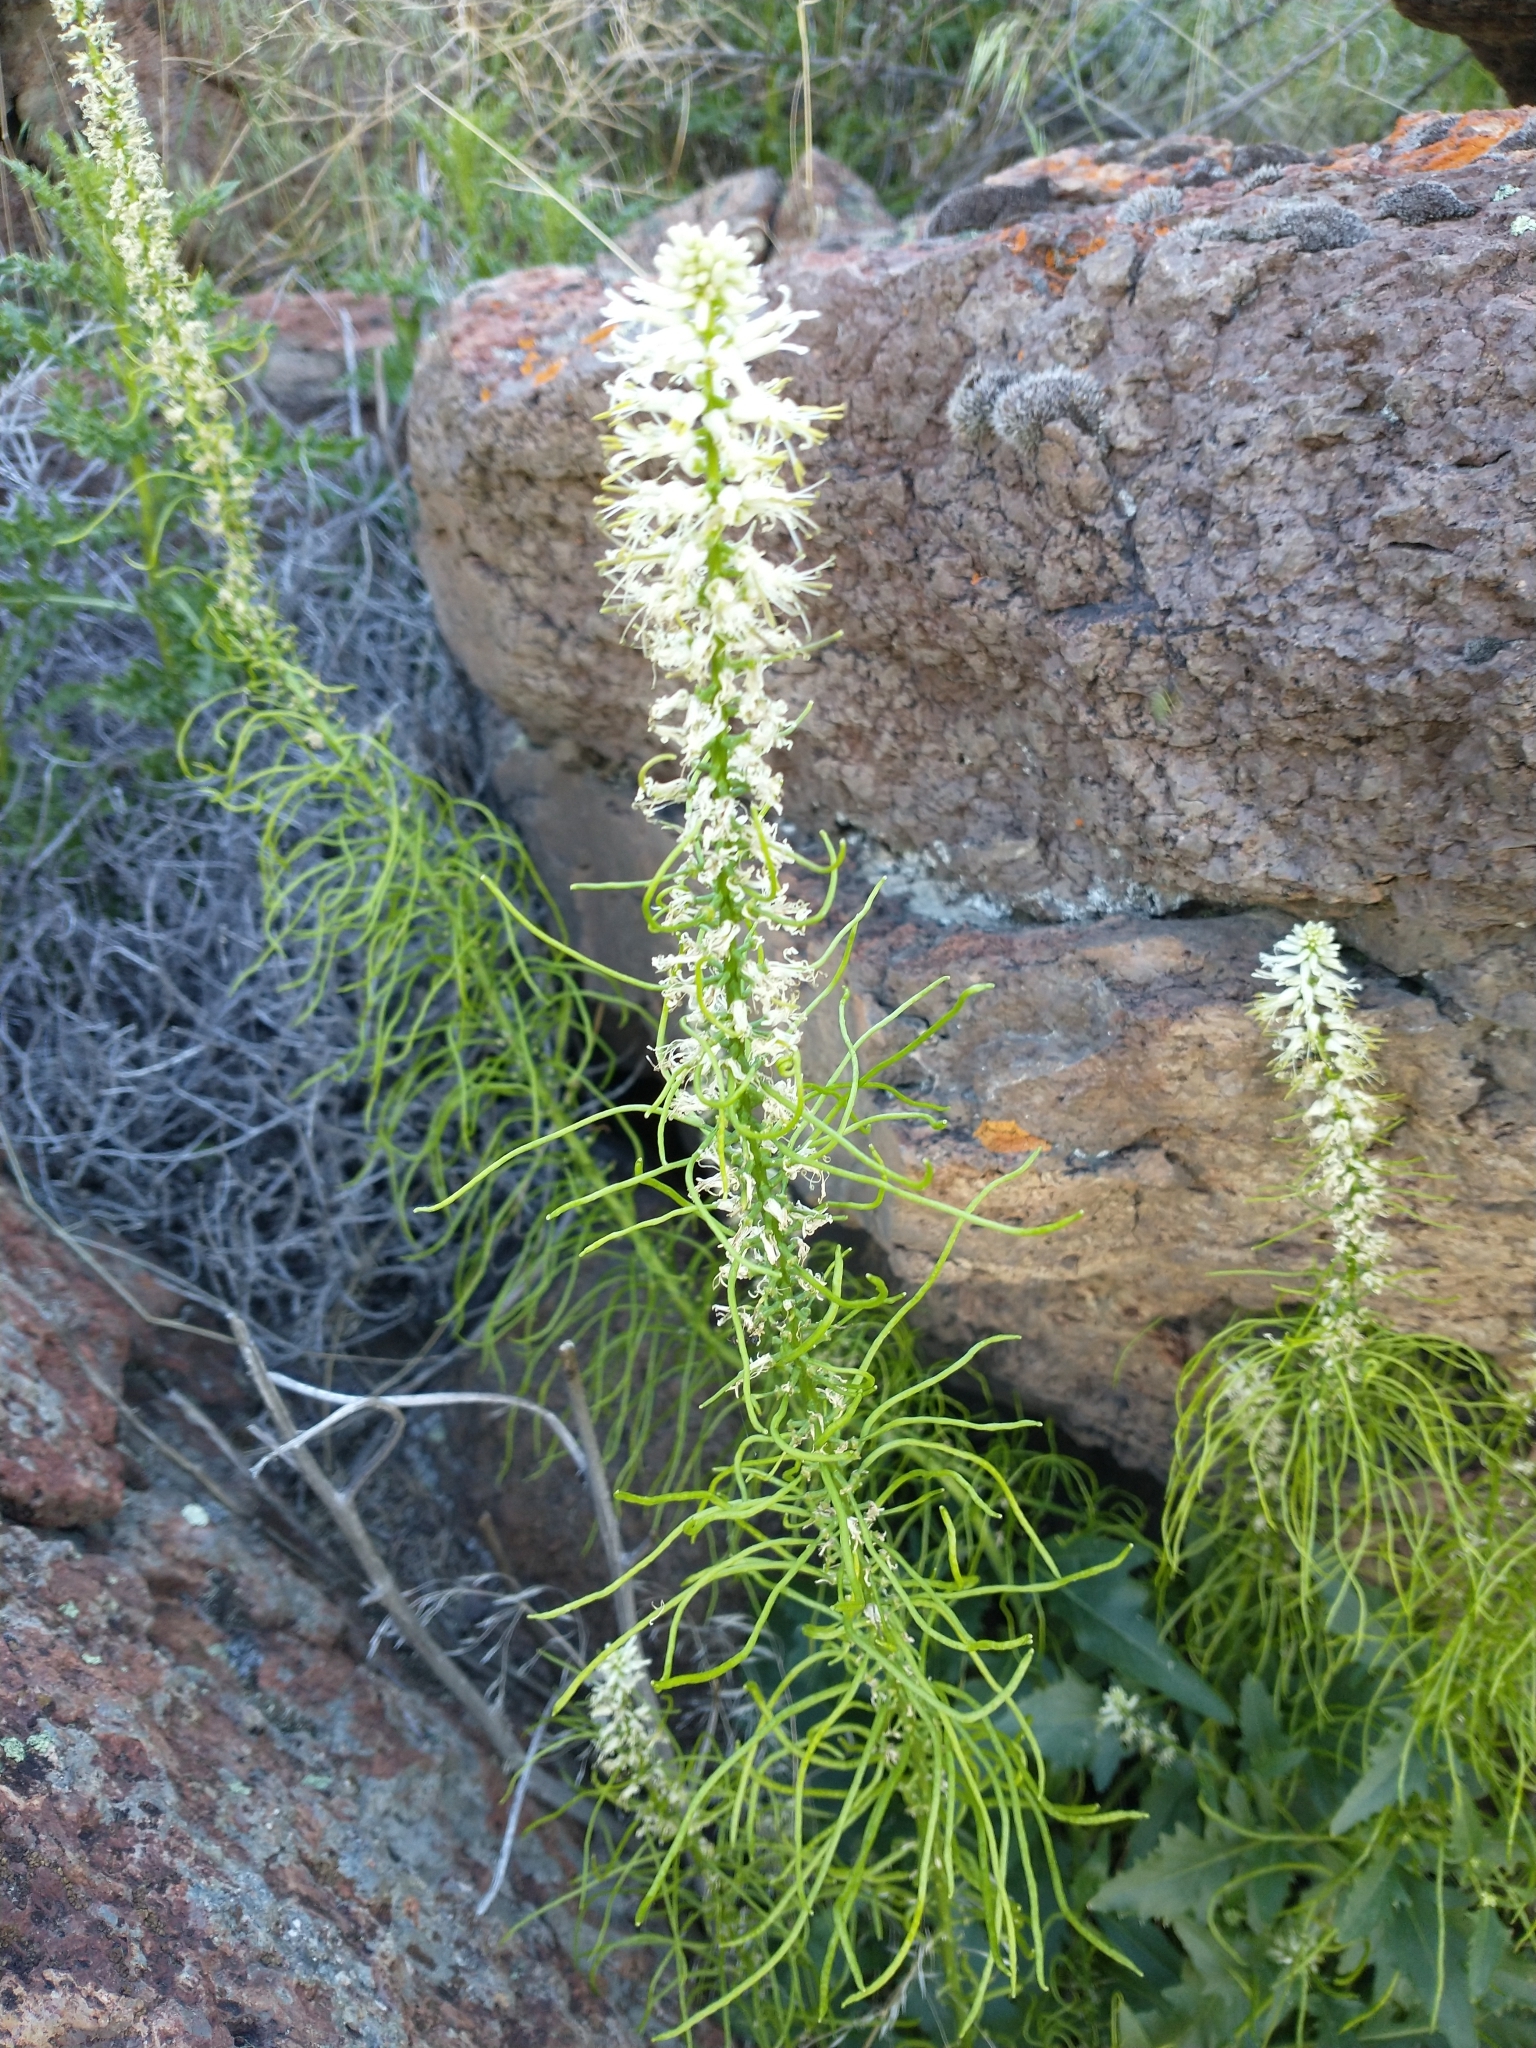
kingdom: Plantae
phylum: Tracheophyta
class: Magnoliopsida
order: Brassicales
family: Brassicaceae
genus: Thelypodium
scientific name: Thelypodium laciniatum
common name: Cut-leaved thelypody
